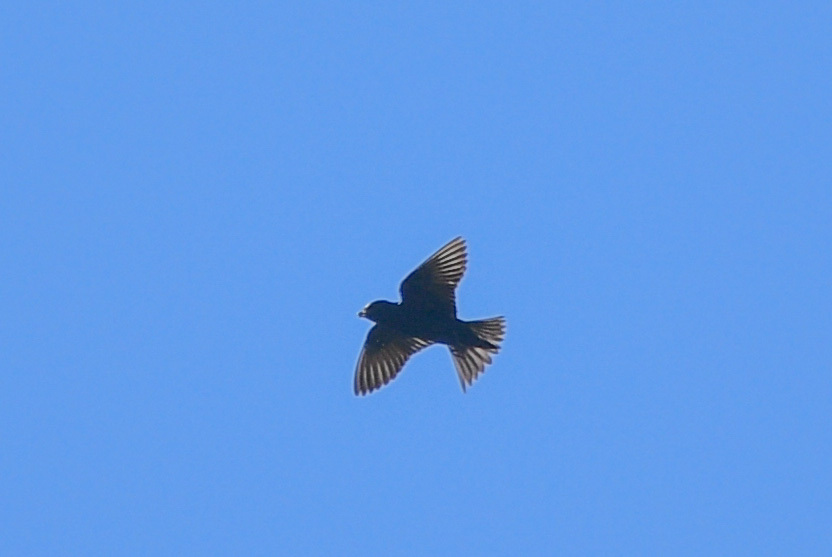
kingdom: Animalia
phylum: Chordata
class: Aves
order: Passeriformes
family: Hirundinidae
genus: Progne
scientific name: Progne subis
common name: Purple martin
